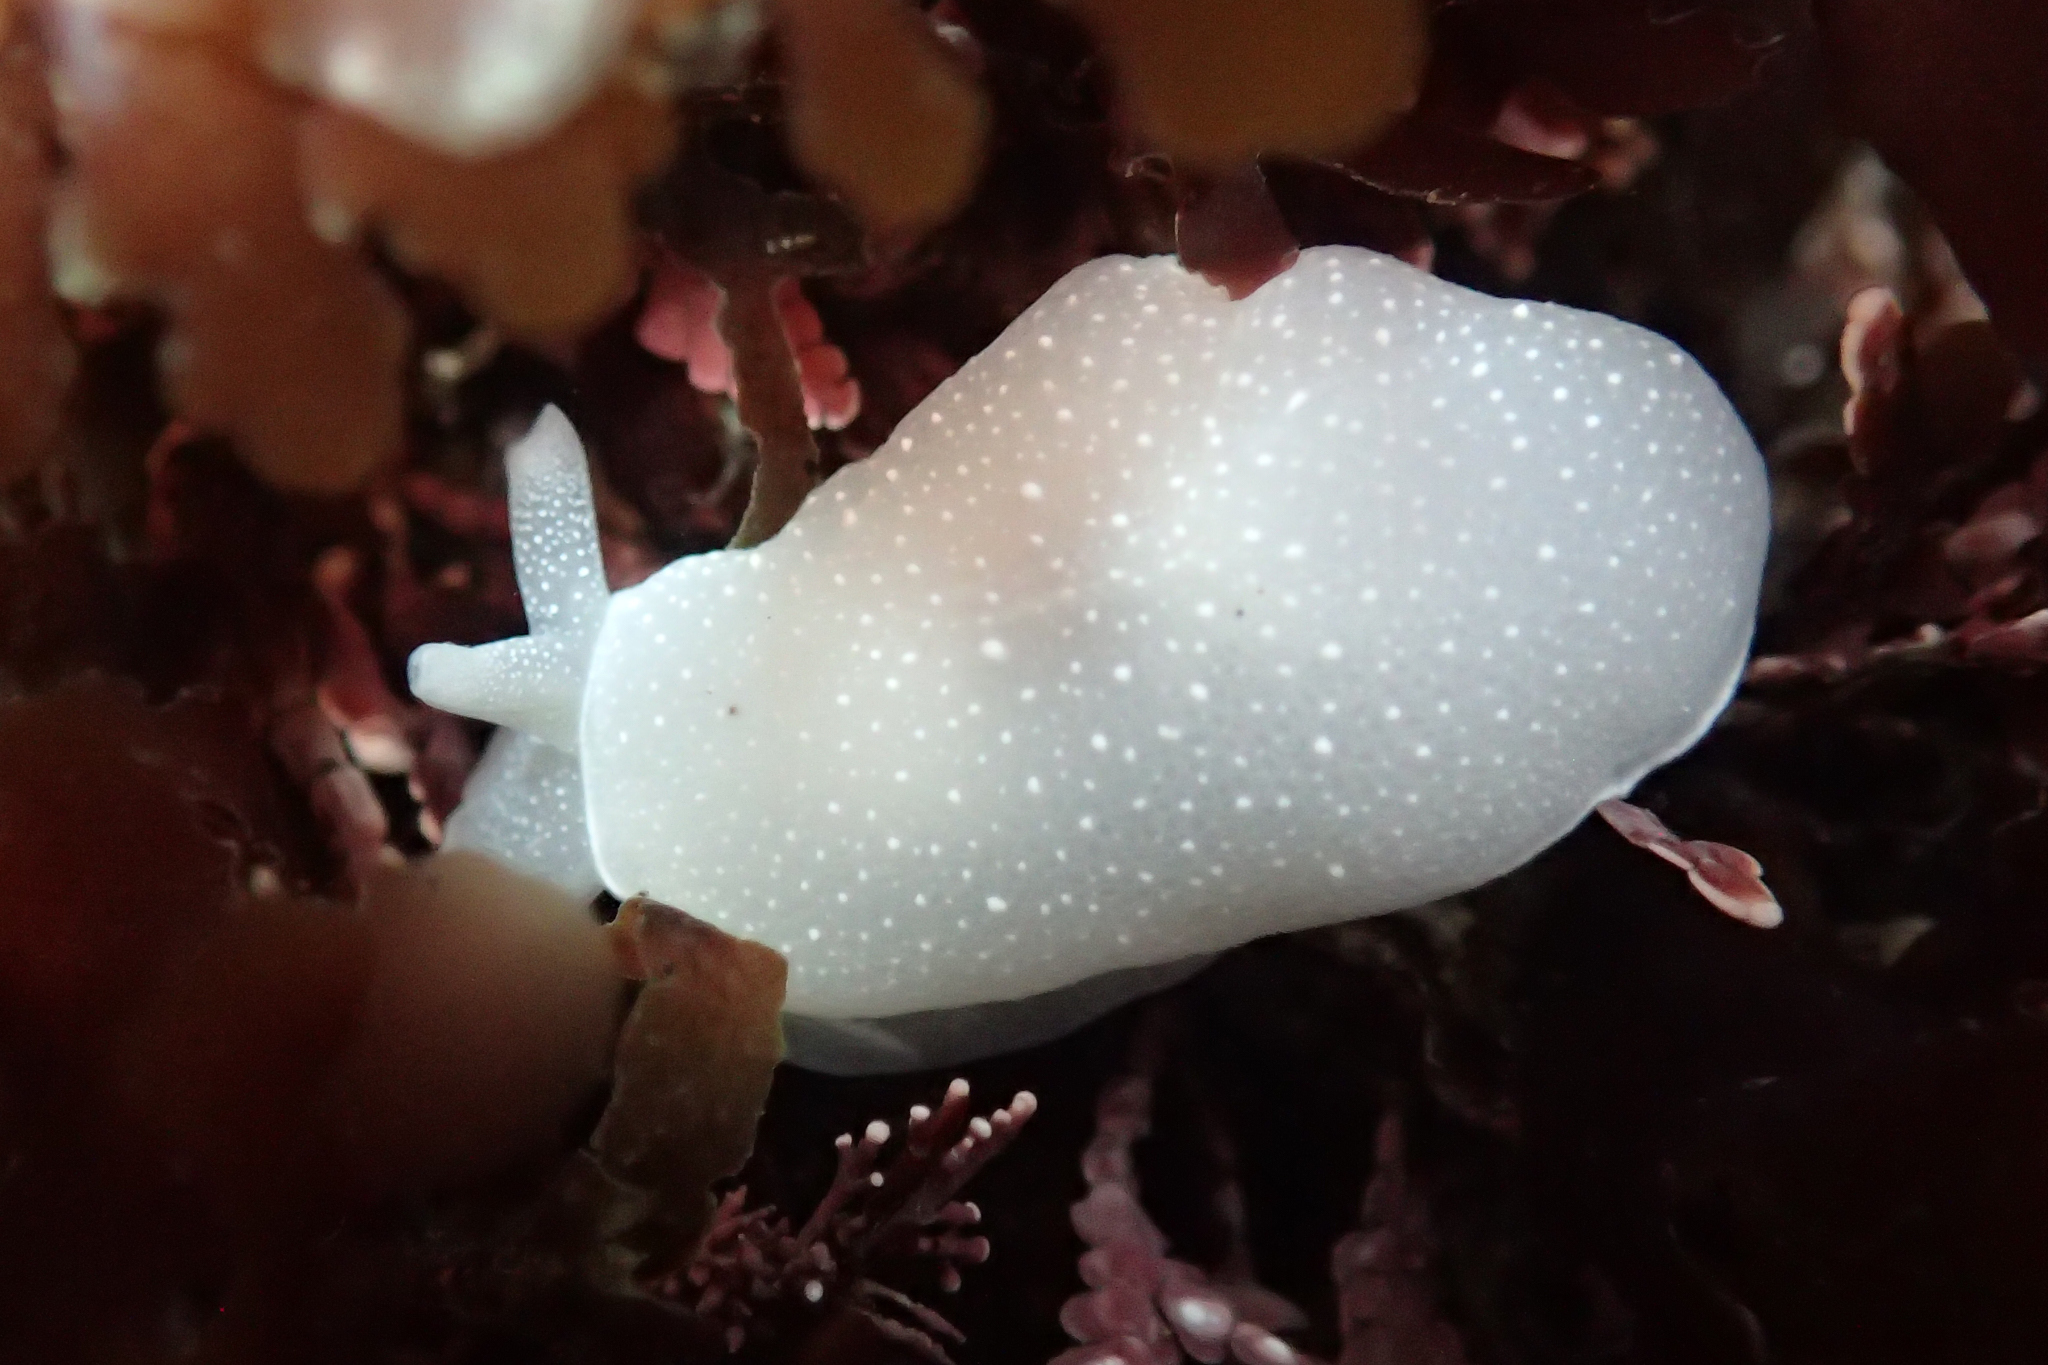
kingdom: Animalia
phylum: Mollusca
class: Gastropoda
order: Pleurobranchida
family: Pleurobranchidae
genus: Boreoberthella
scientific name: Boreoberthella
